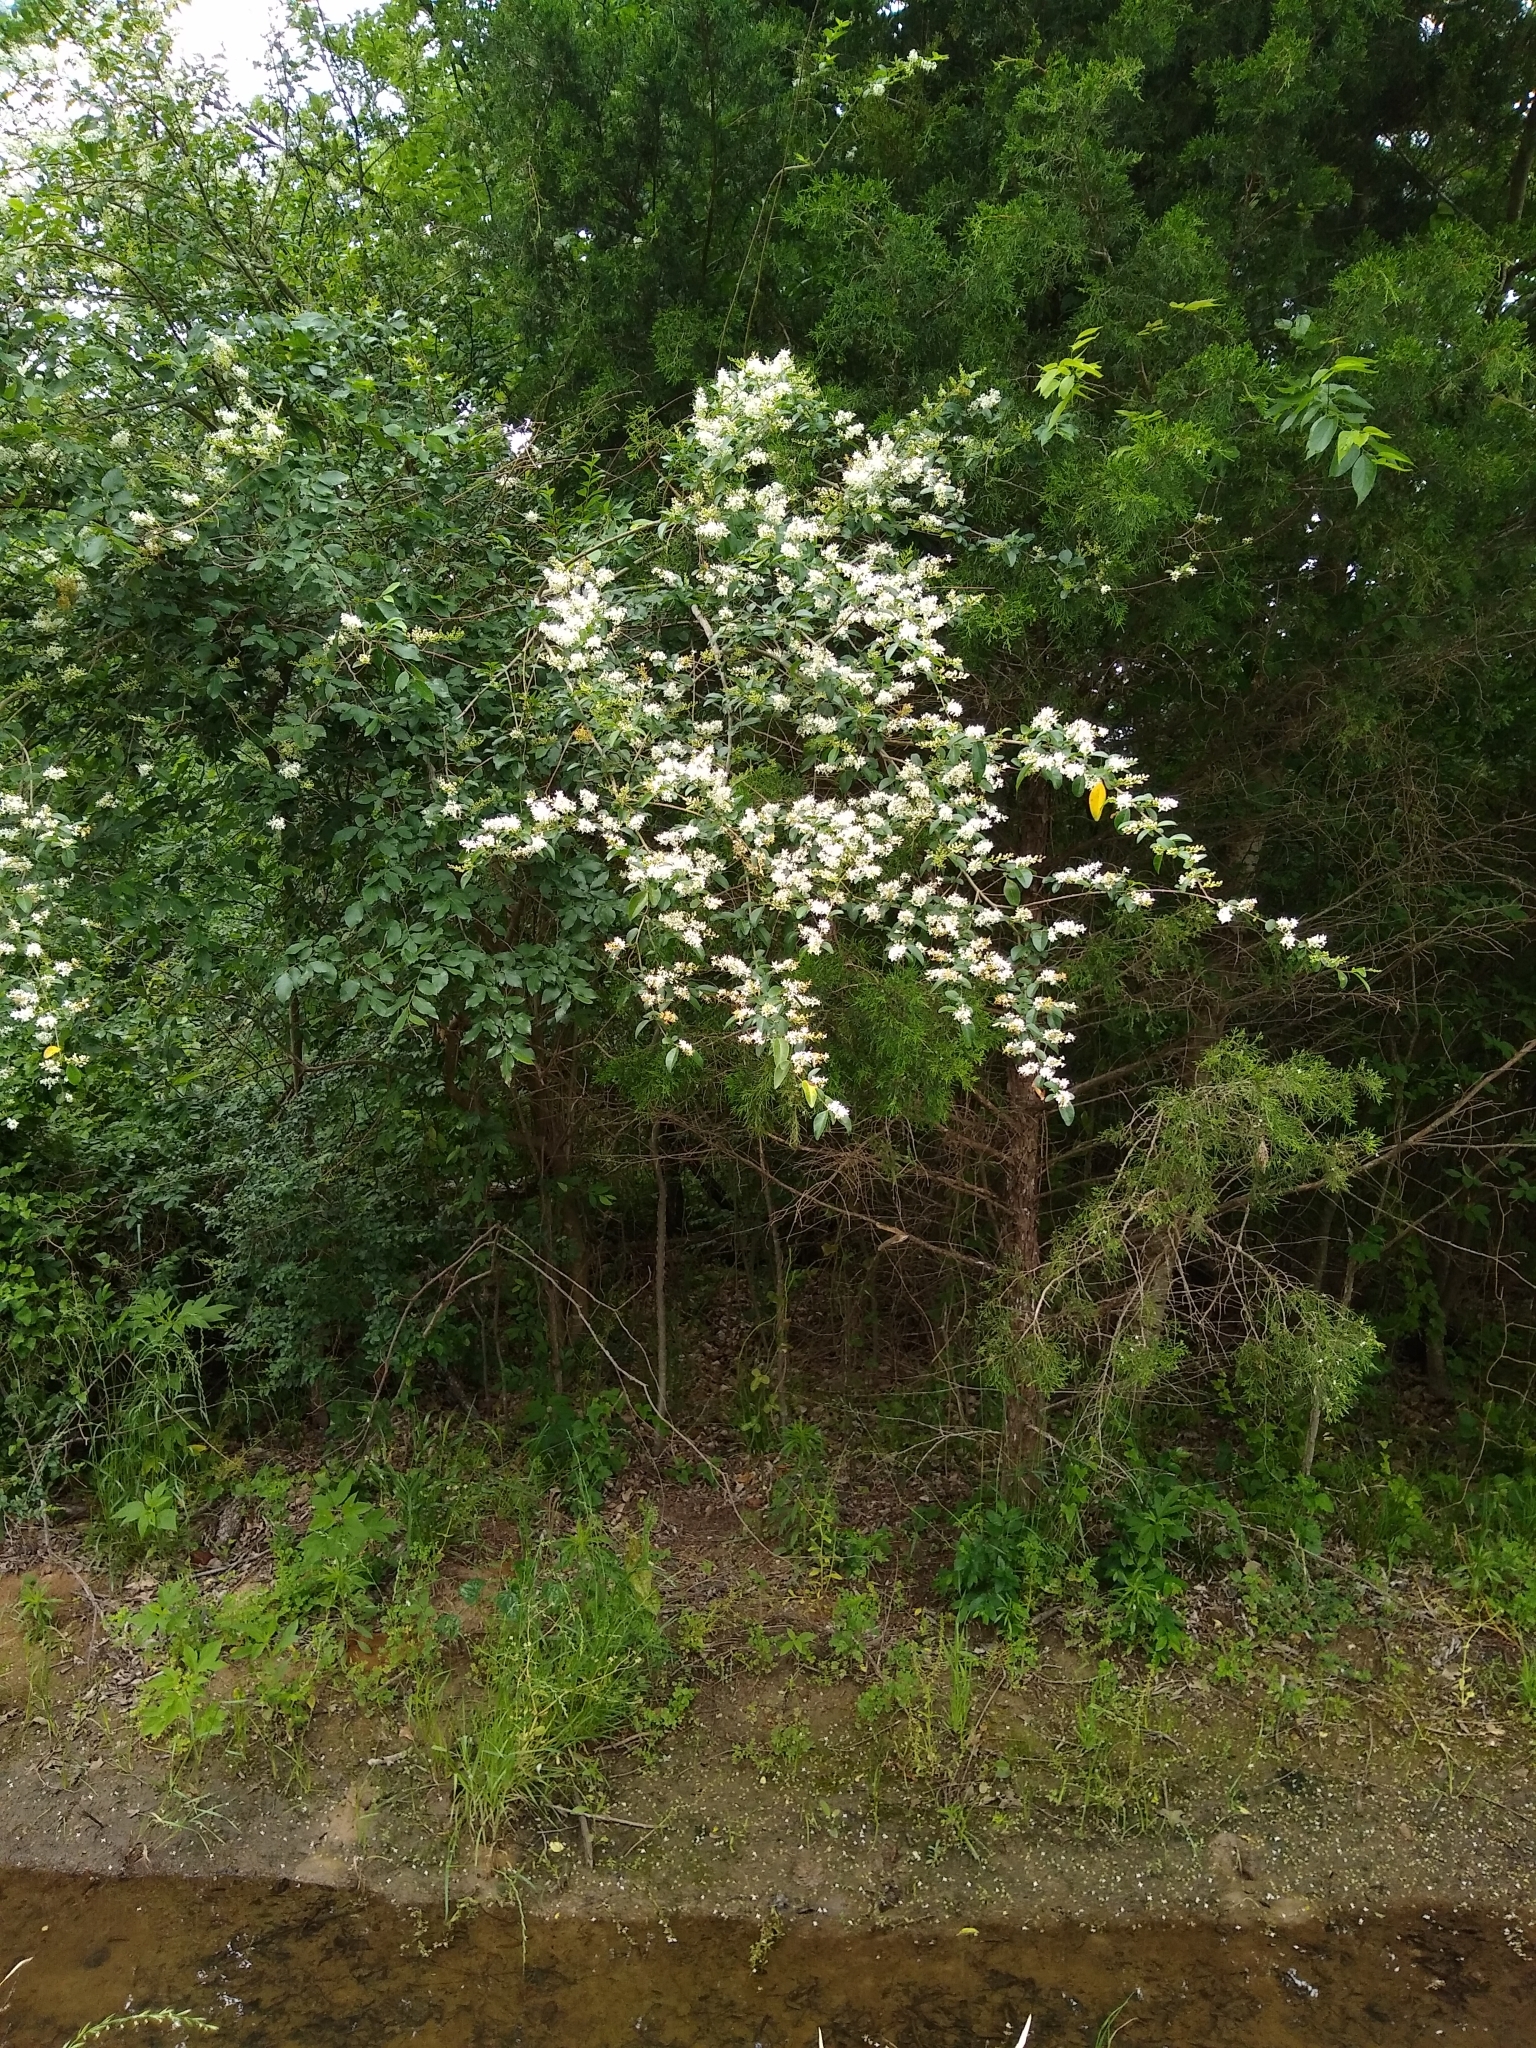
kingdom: Plantae
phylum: Tracheophyta
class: Magnoliopsida
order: Lamiales
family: Oleaceae
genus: Ligustrum
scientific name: Ligustrum sinense
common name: Chinese privet
